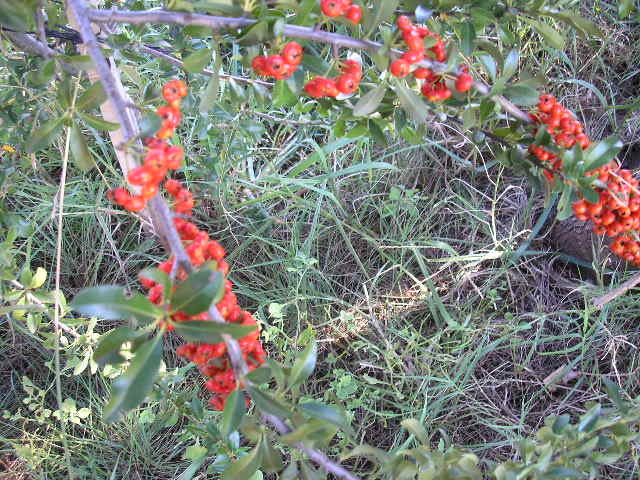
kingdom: Plantae
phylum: Tracheophyta
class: Magnoliopsida
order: Rosales
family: Rosaceae
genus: Pyracantha
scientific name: Pyracantha coccinea
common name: Firethorn
